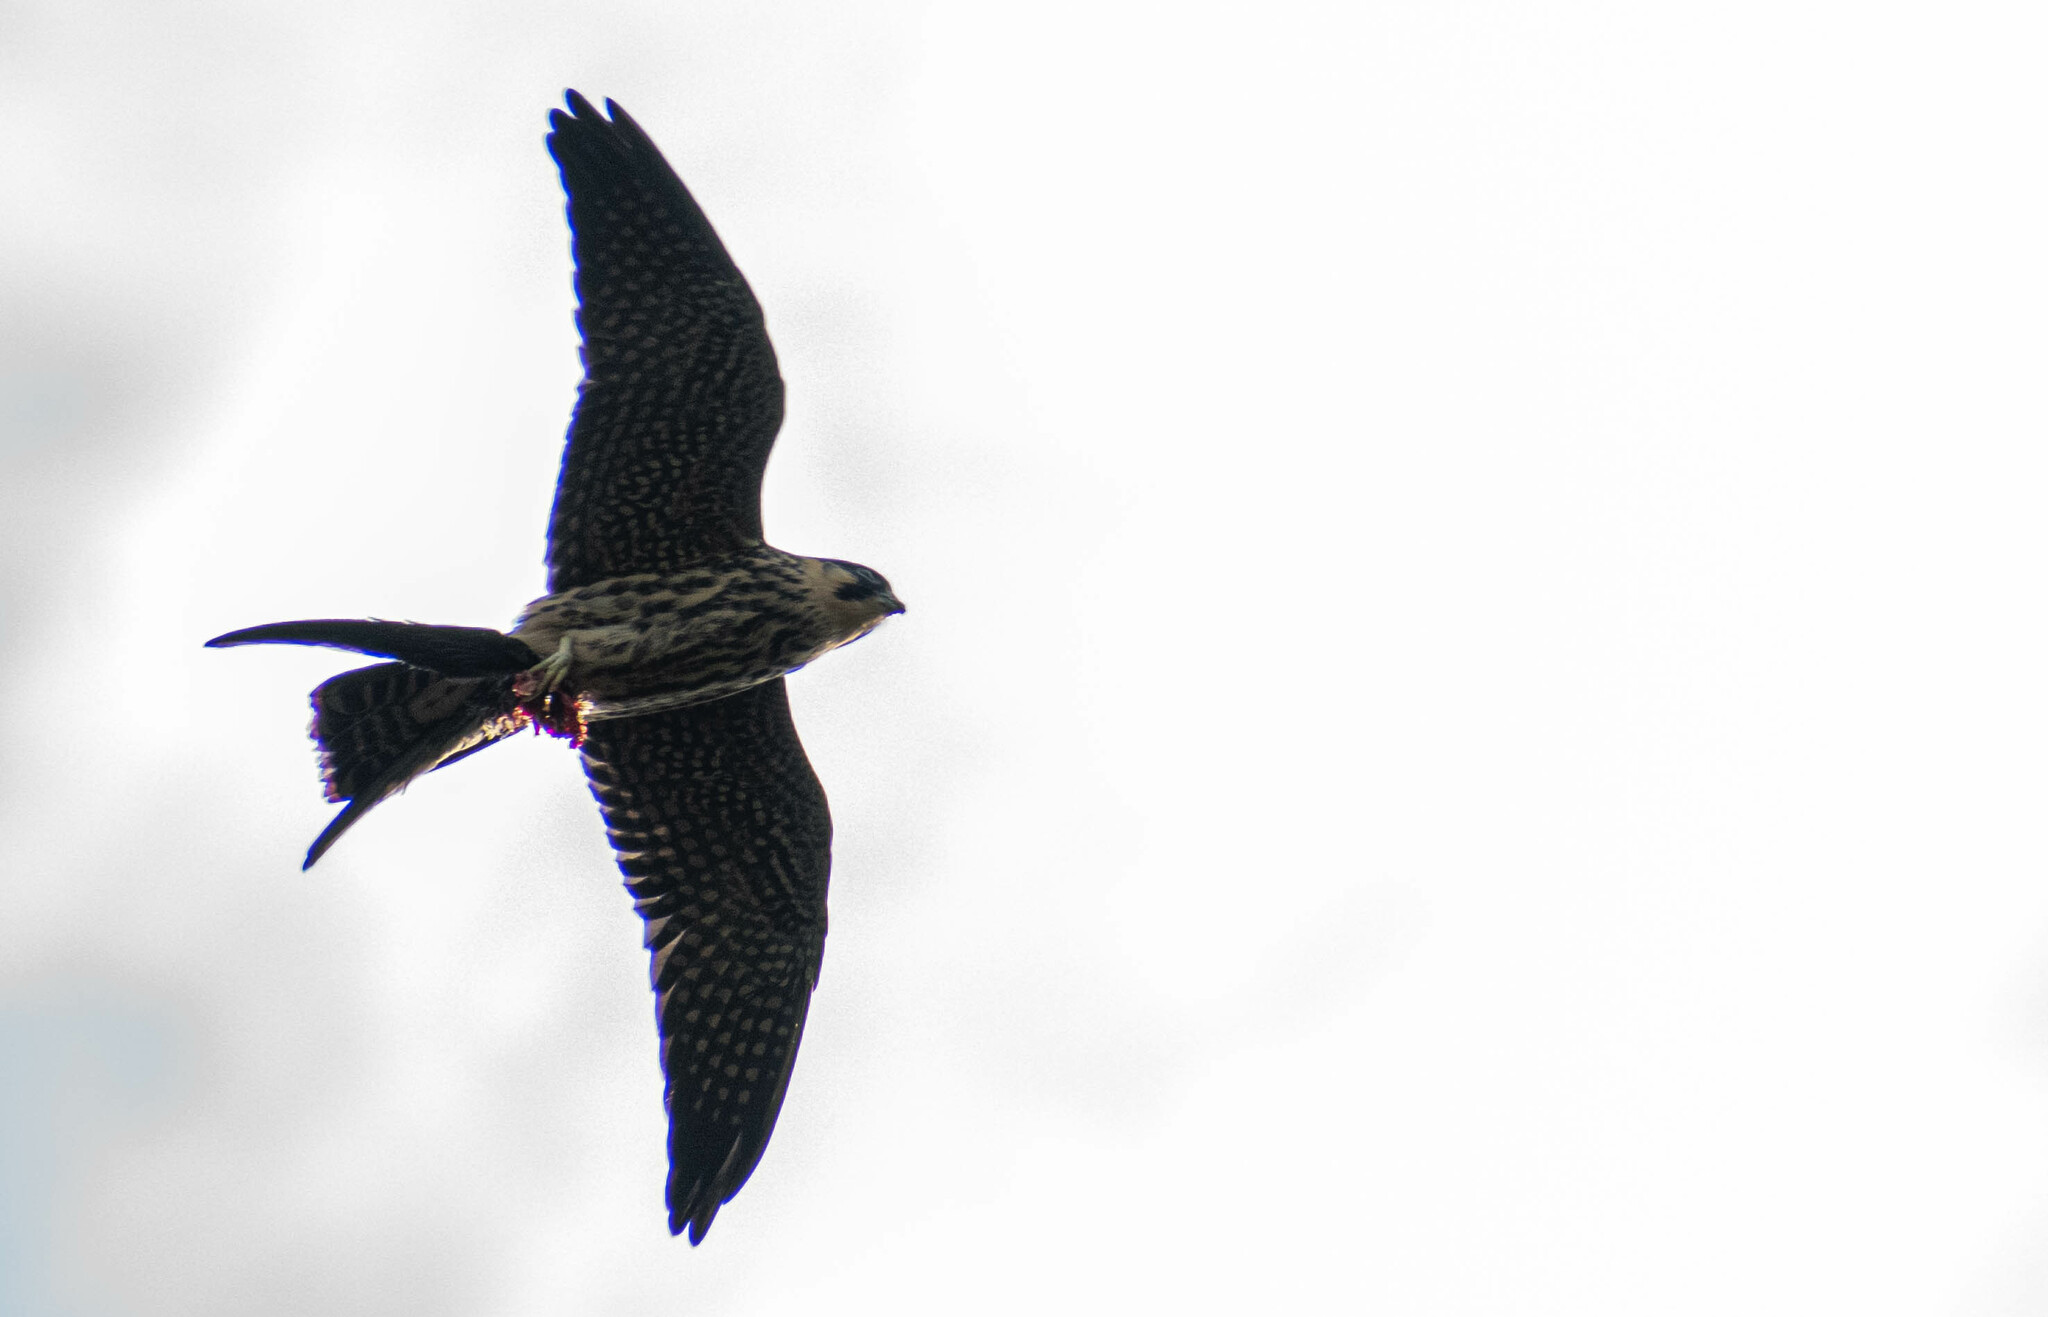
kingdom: Animalia
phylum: Chordata
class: Aves
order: Falconiformes
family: Falconidae
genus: Falco
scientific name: Falco subbuteo
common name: Eurasian hobby
